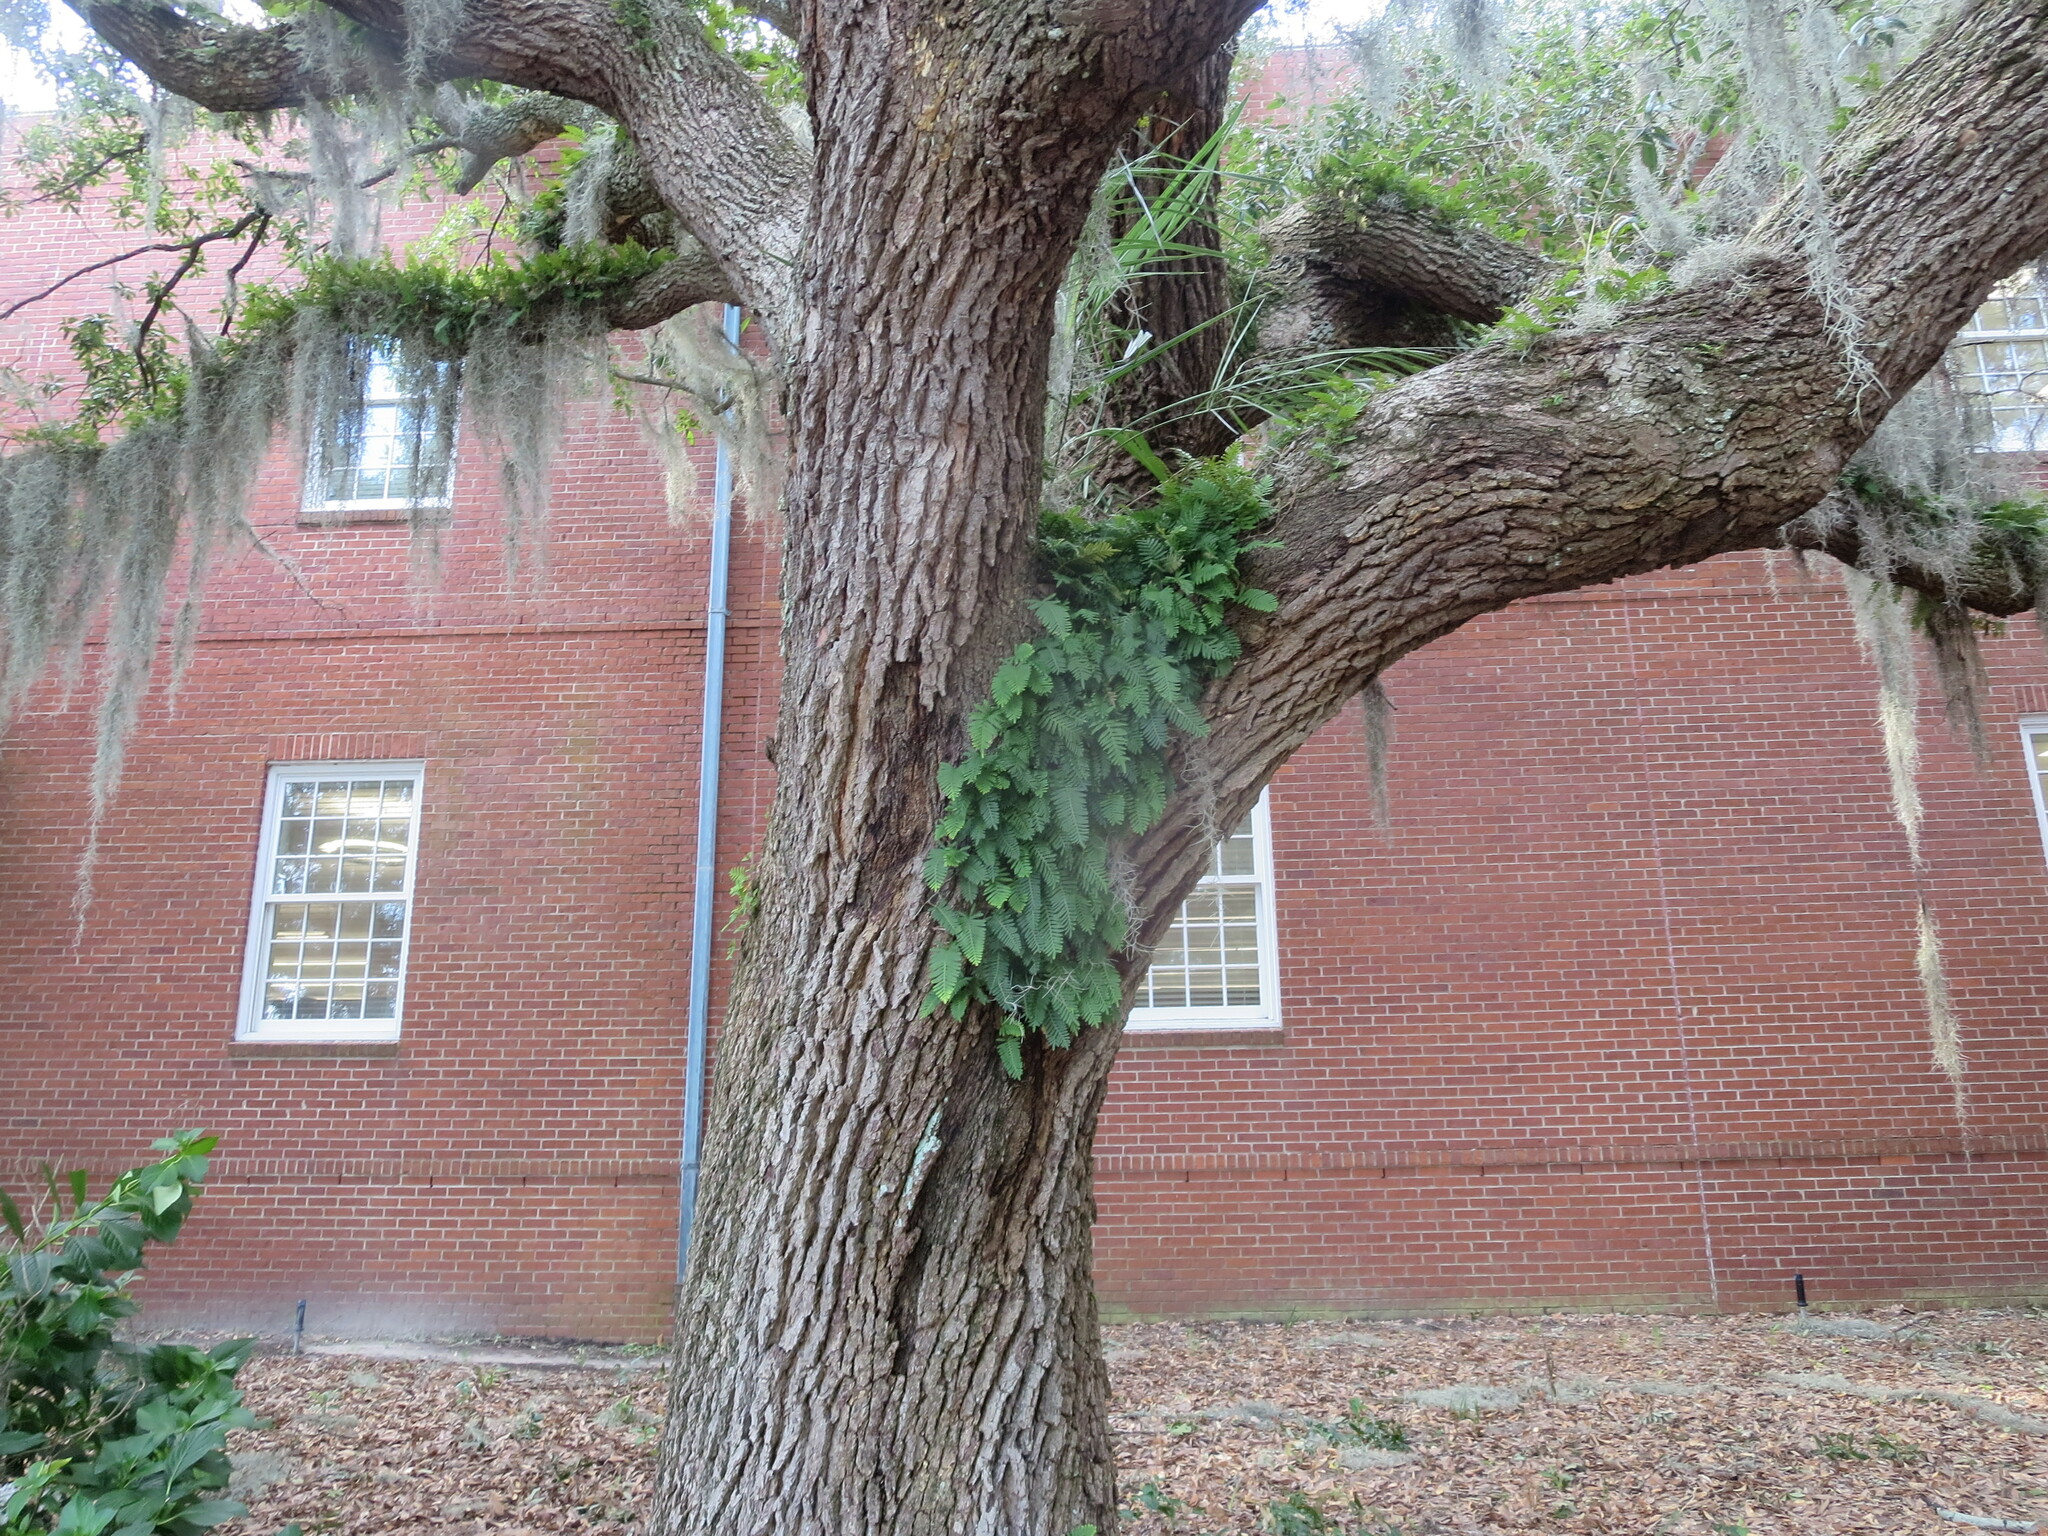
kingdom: Plantae
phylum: Tracheophyta
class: Polypodiopsida
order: Polypodiales
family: Polypodiaceae
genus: Pleopeltis
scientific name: Pleopeltis michauxiana
